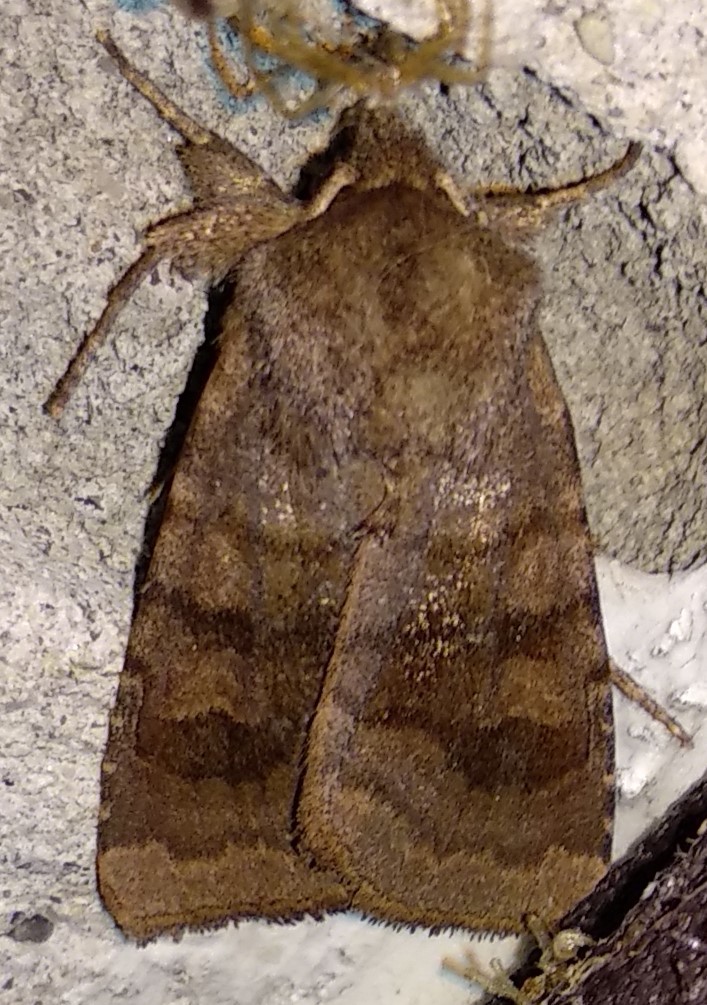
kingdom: Animalia
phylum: Arthropoda
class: Insecta
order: Lepidoptera
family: Noctuidae
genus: Nephelodes
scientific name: Nephelodes minians
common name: Bronzed cutworm
